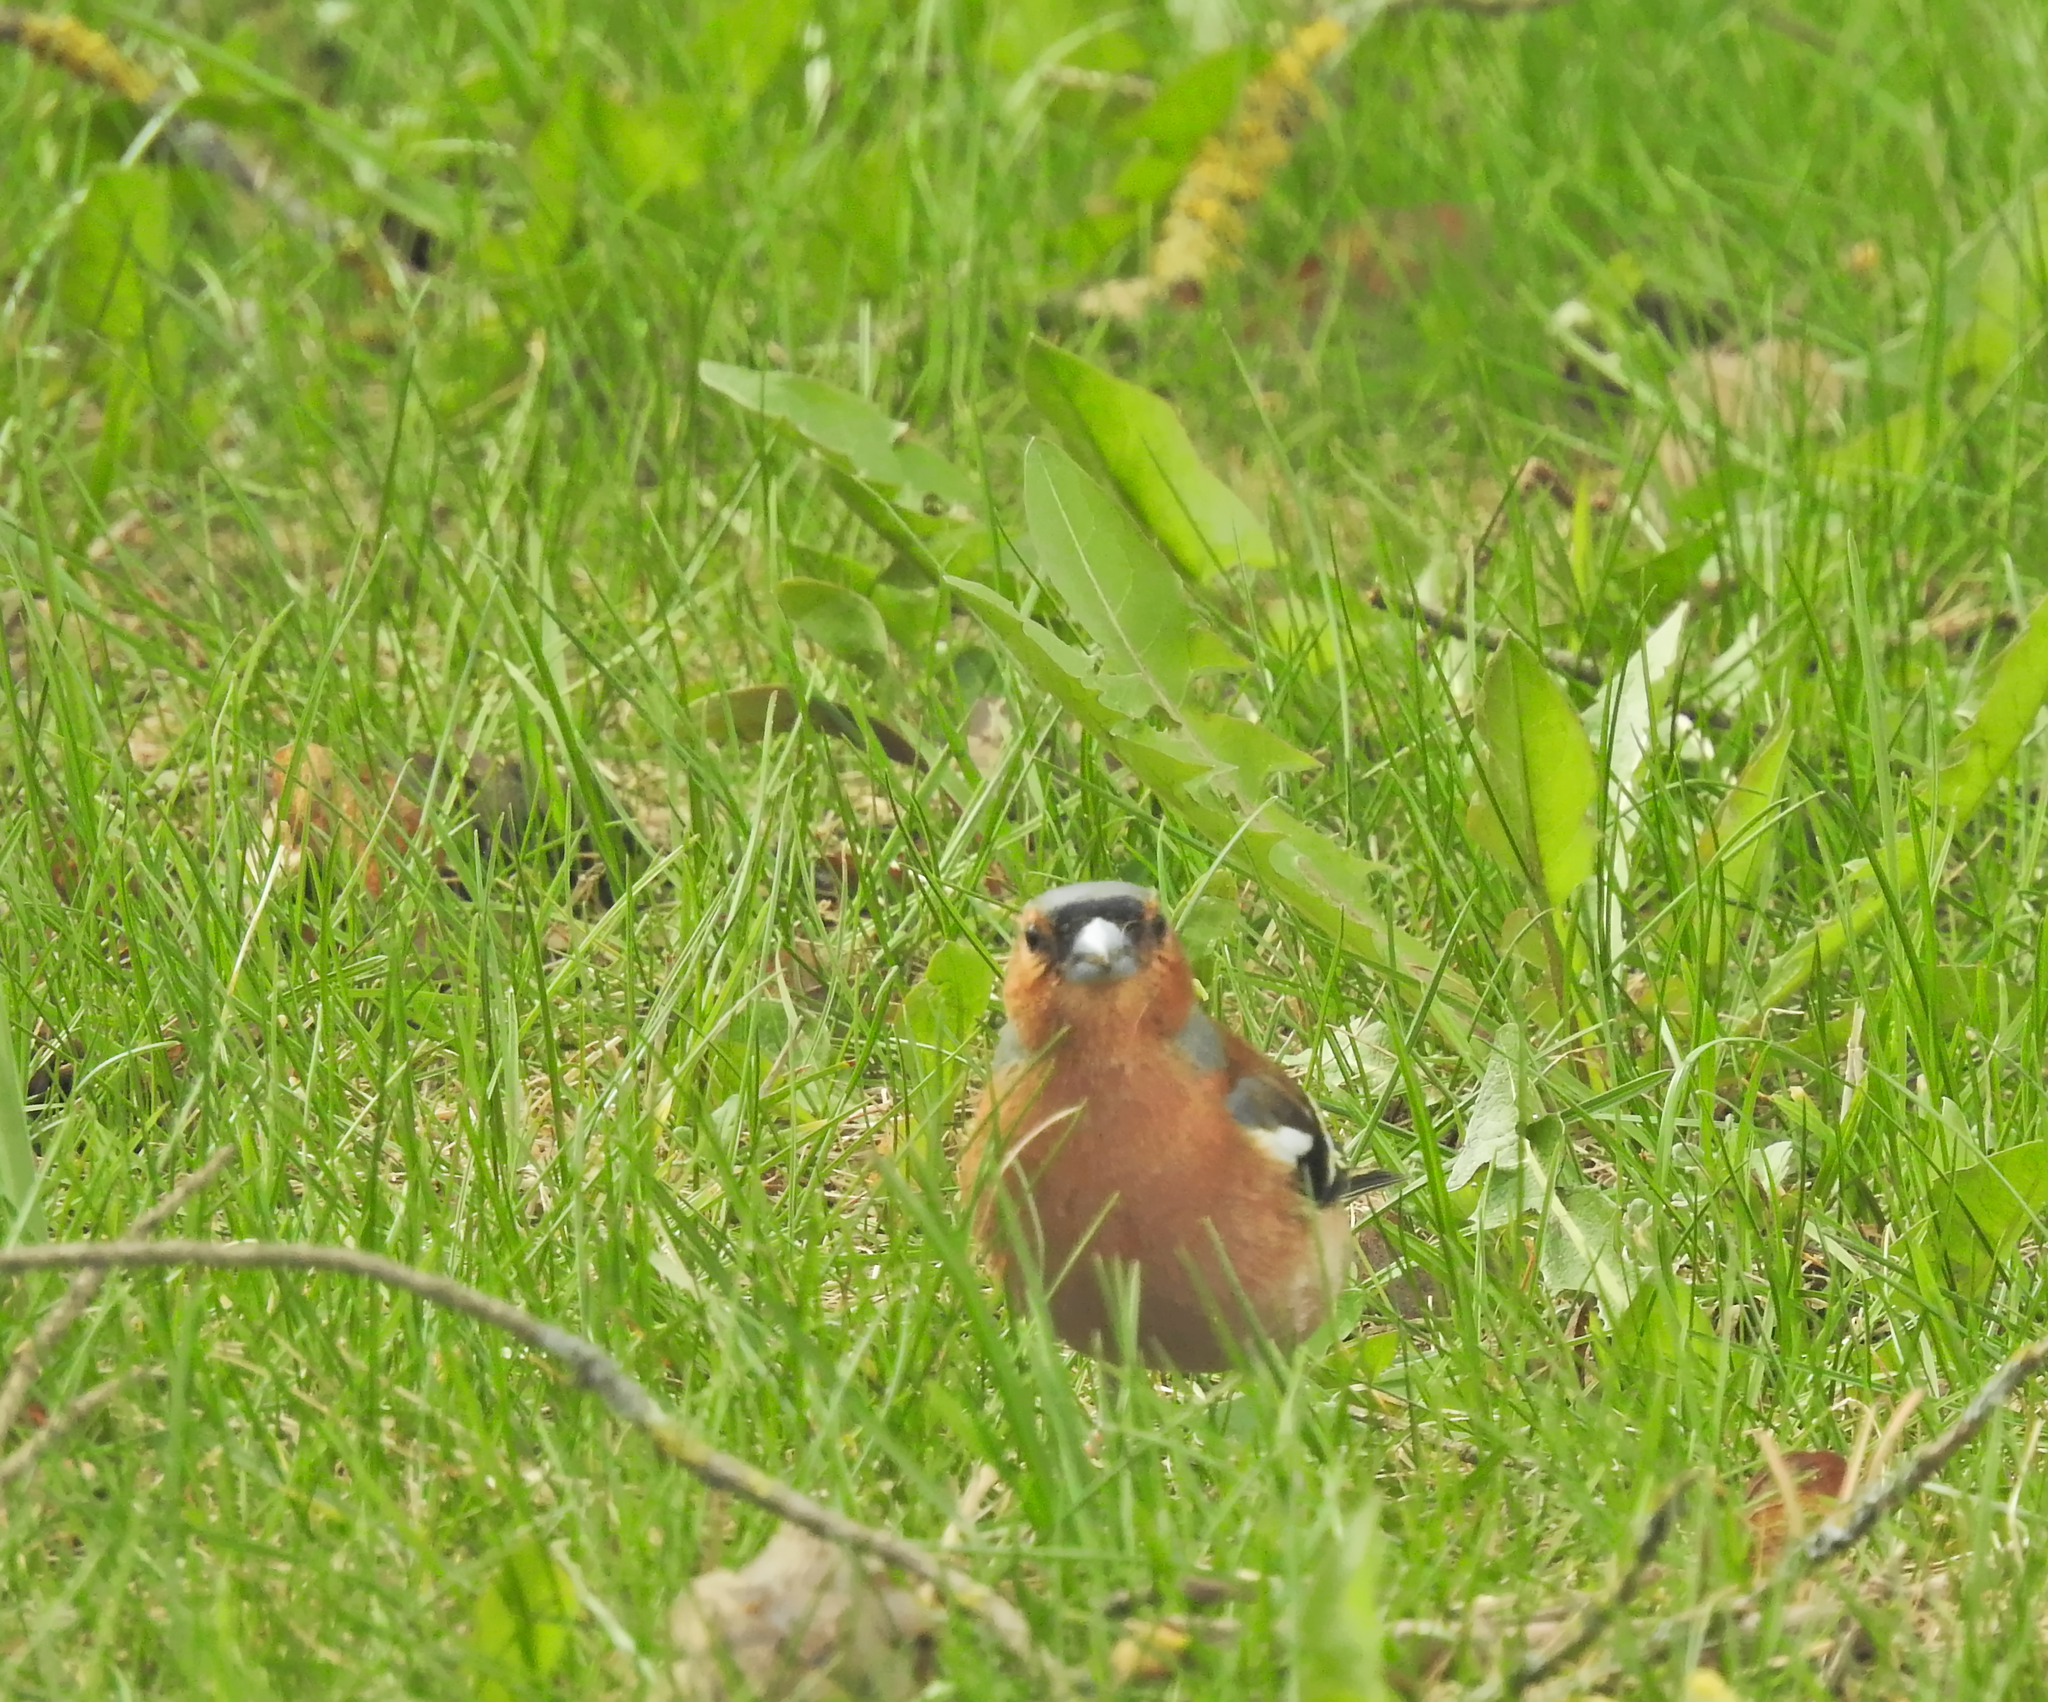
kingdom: Animalia
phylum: Chordata
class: Aves
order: Passeriformes
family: Fringillidae
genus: Fringilla
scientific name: Fringilla coelebs
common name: Common chaffinch
